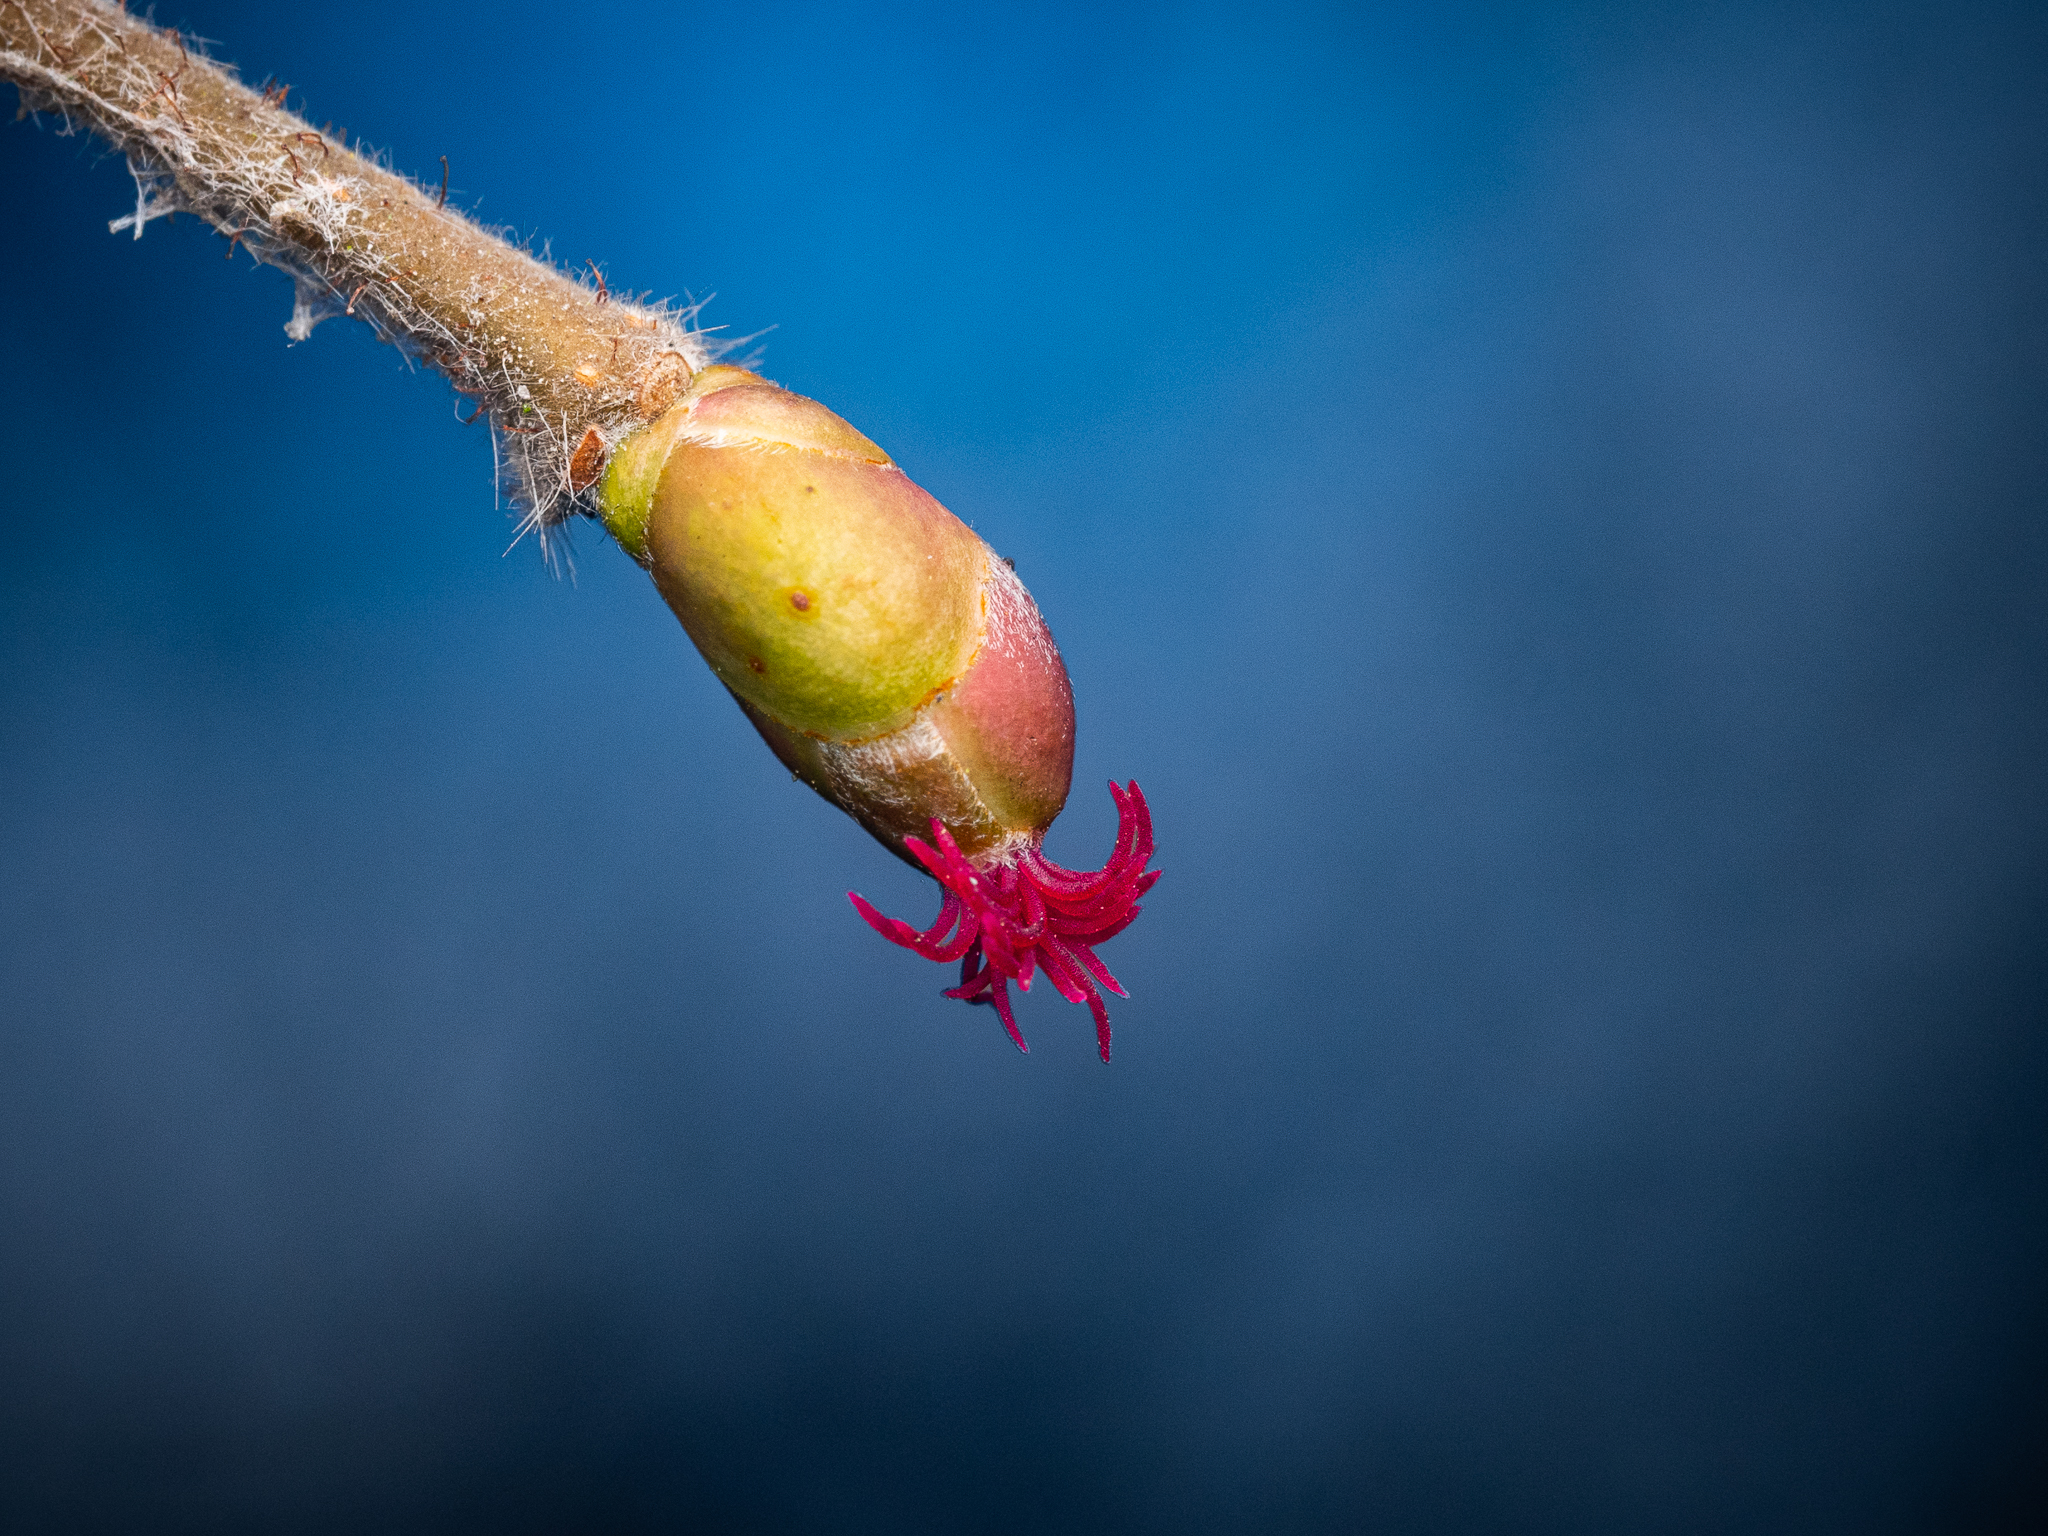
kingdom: Plantae
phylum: Tracheophyta
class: Magnoliopsida
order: Fagales
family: Betulaceae
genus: Corylus
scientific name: Corylus avellana
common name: European hazel
